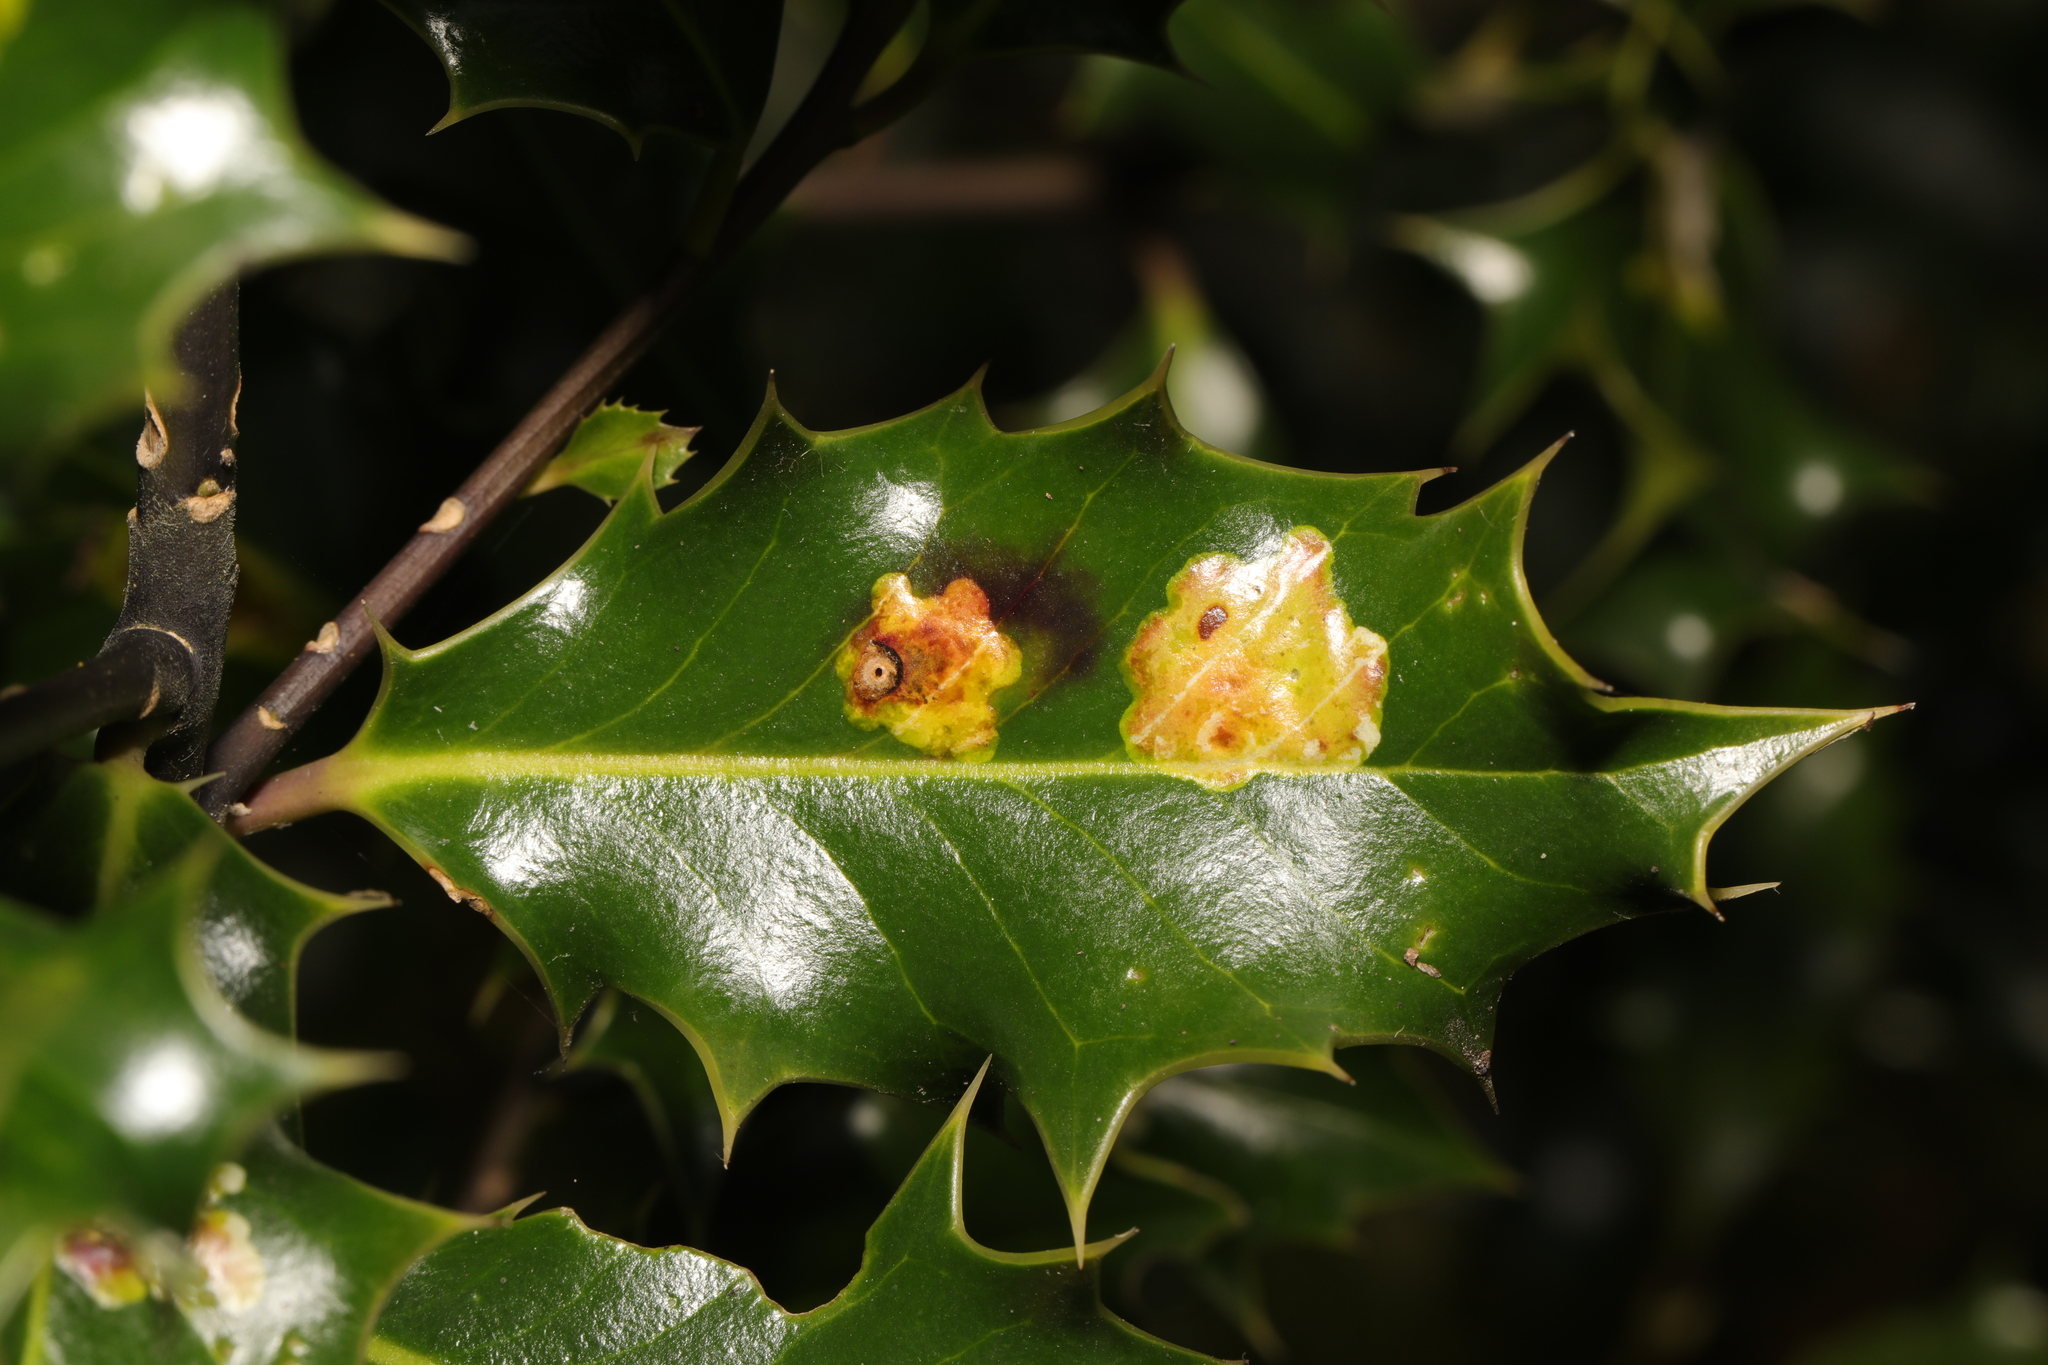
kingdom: Animalia
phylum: Arthropoda
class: Insecta
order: Diptera
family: Agromyzidae
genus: Phytomyza
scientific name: Phytomyza ilicis
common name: Holly leafminer
